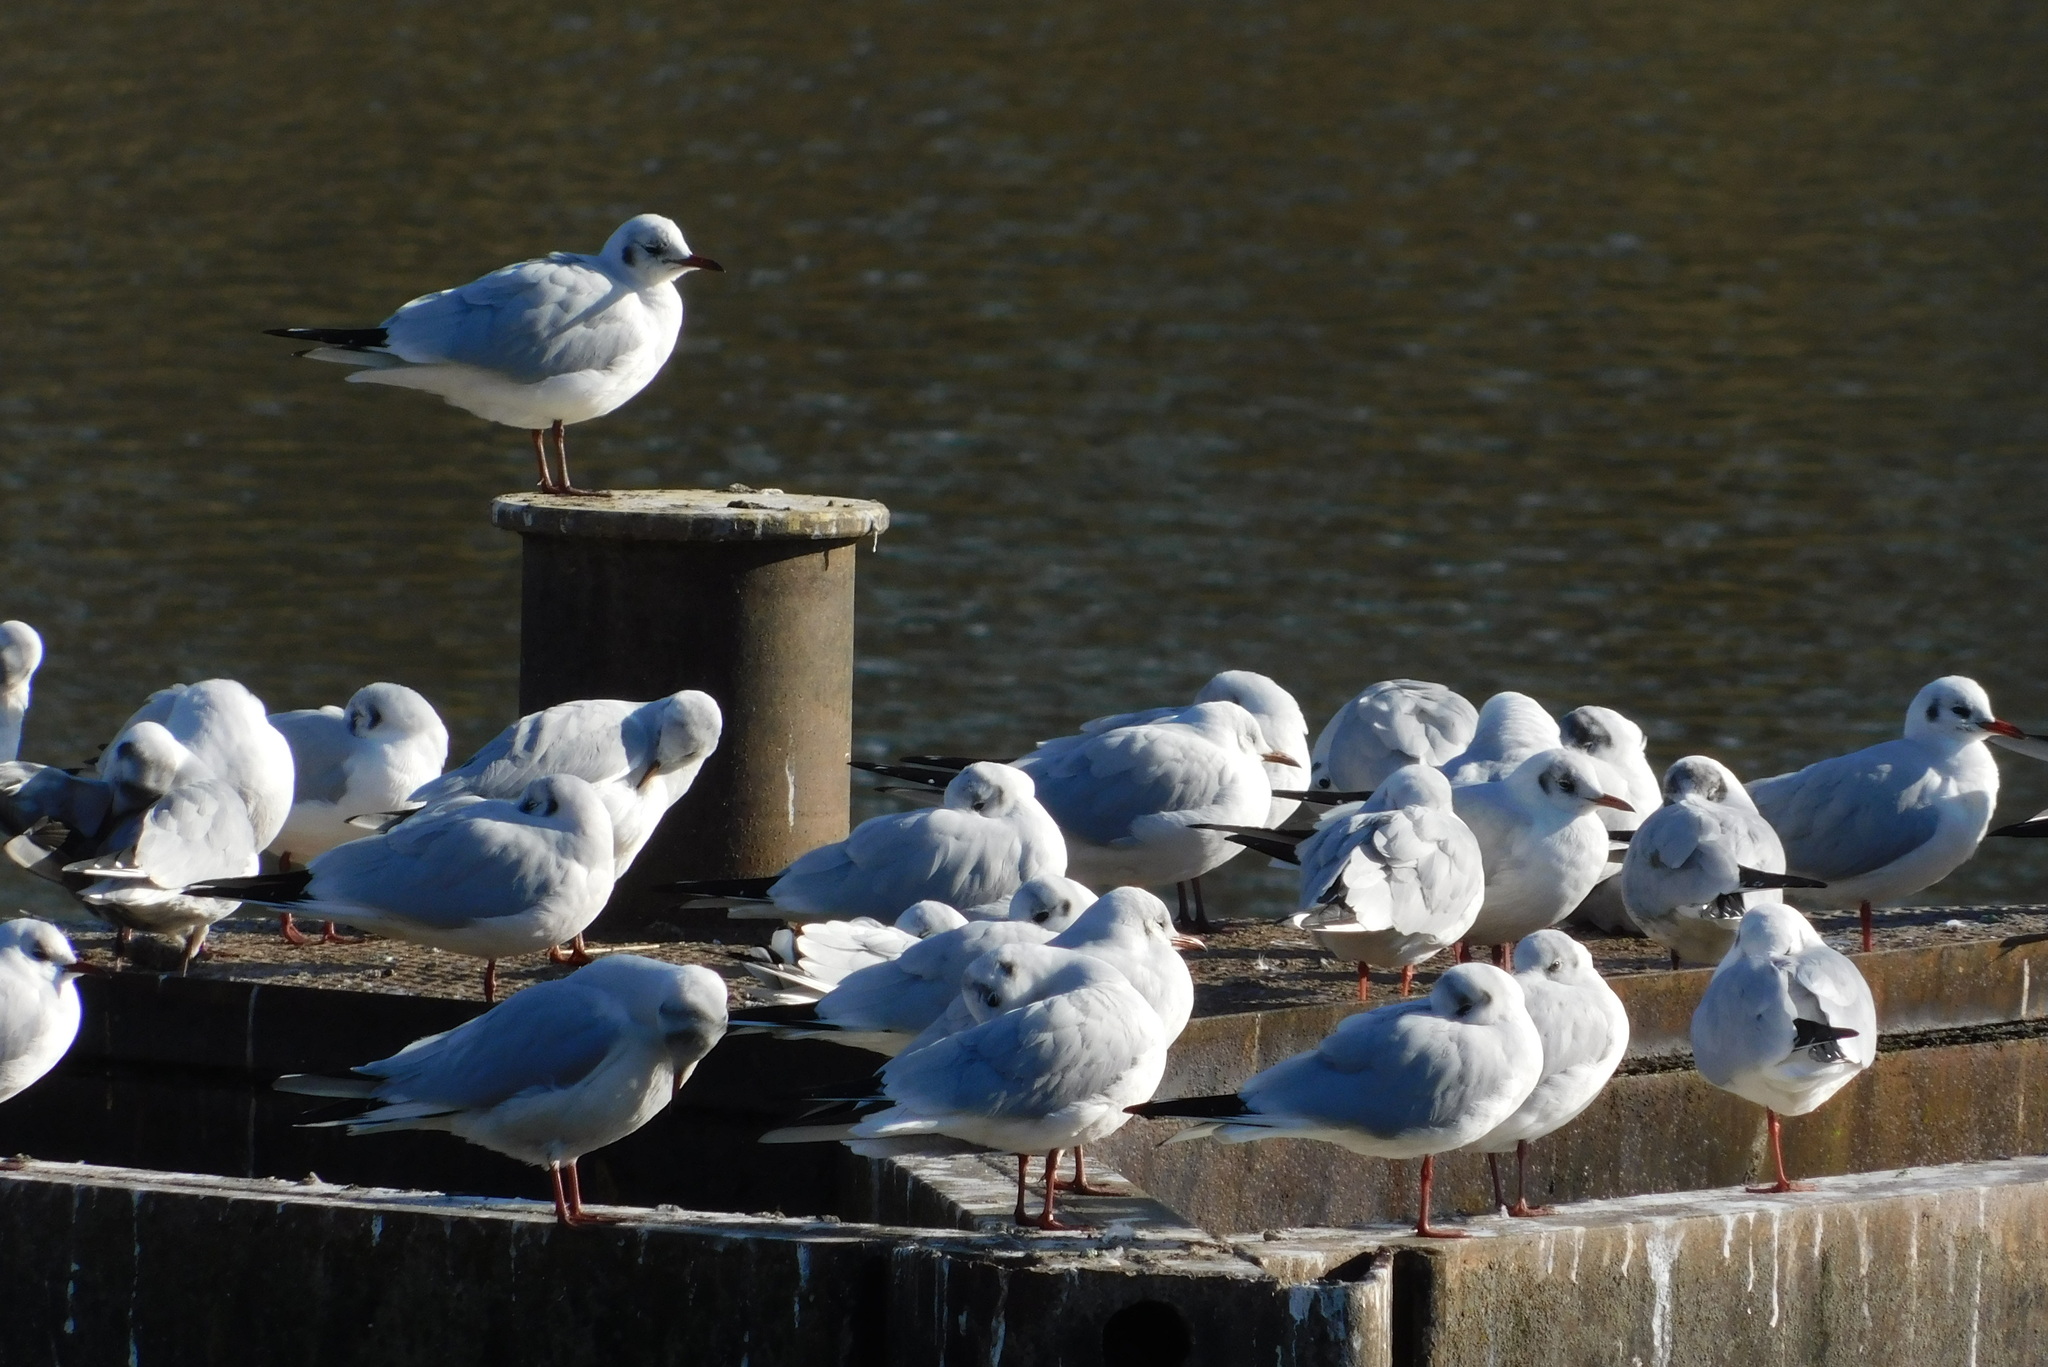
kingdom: Animalia
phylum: Chordata
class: Aves
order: Charadriiformes
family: Laridae
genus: Chroicocephalus
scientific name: Chroicocephalus ridibundus
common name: Black-headed gull
